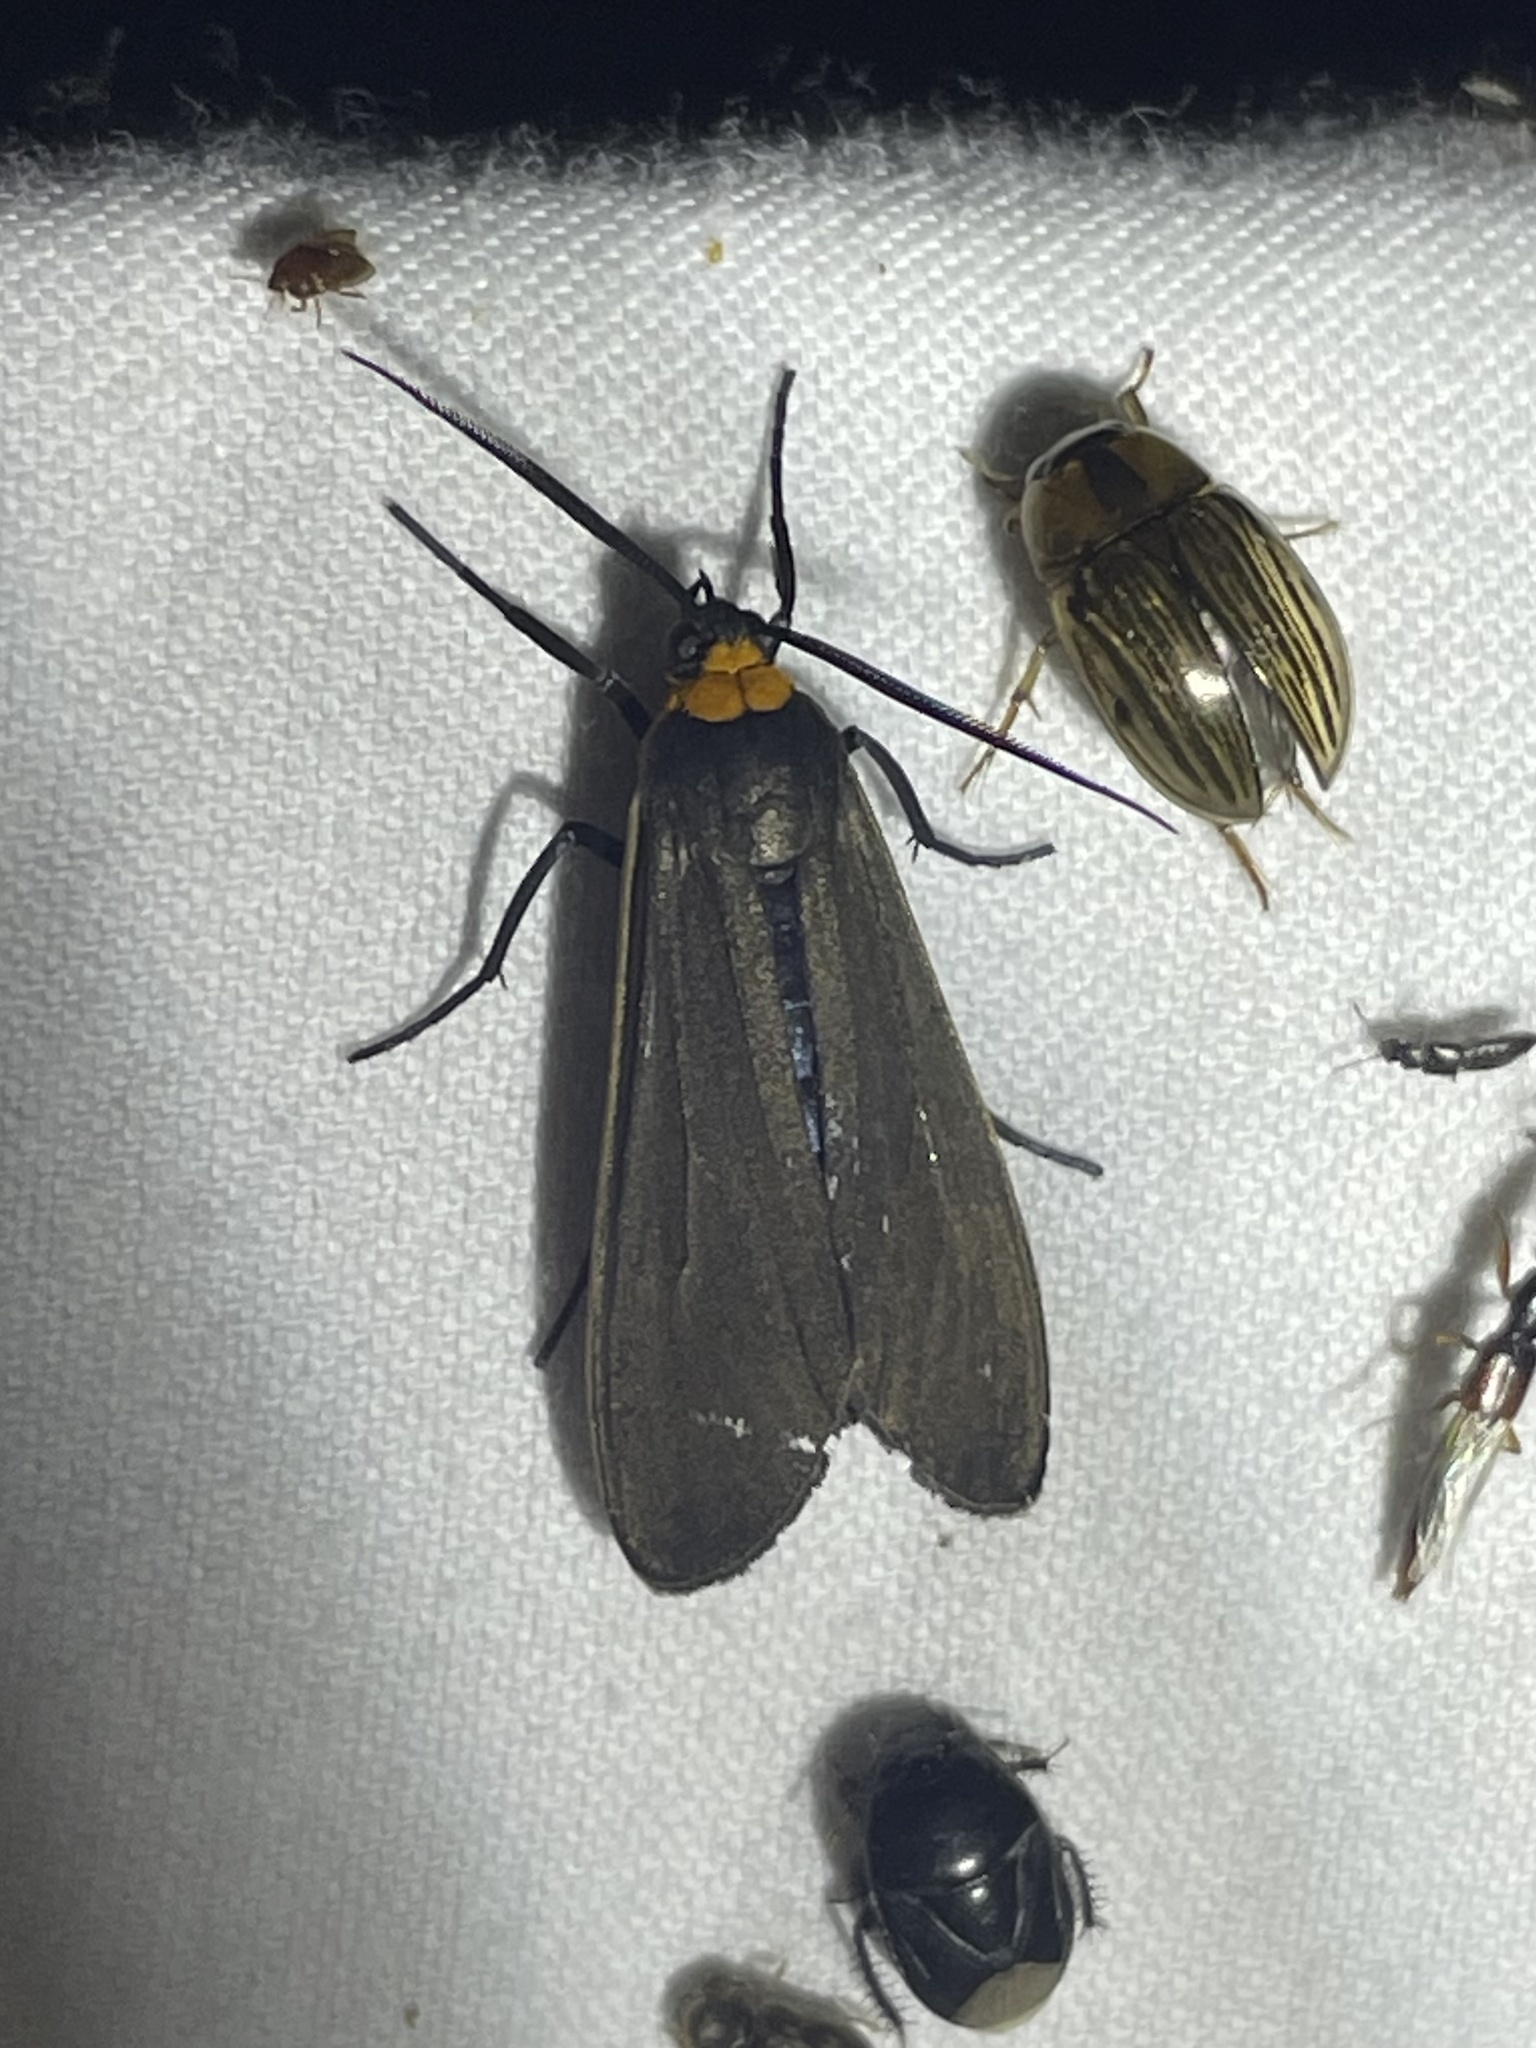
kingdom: Animalia
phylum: Arthropoda
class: Insecta
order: Lepidoptera
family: Erebidae
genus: Cisseps
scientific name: Cisseps fulvicollis
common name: Yellow-collared scape moth
